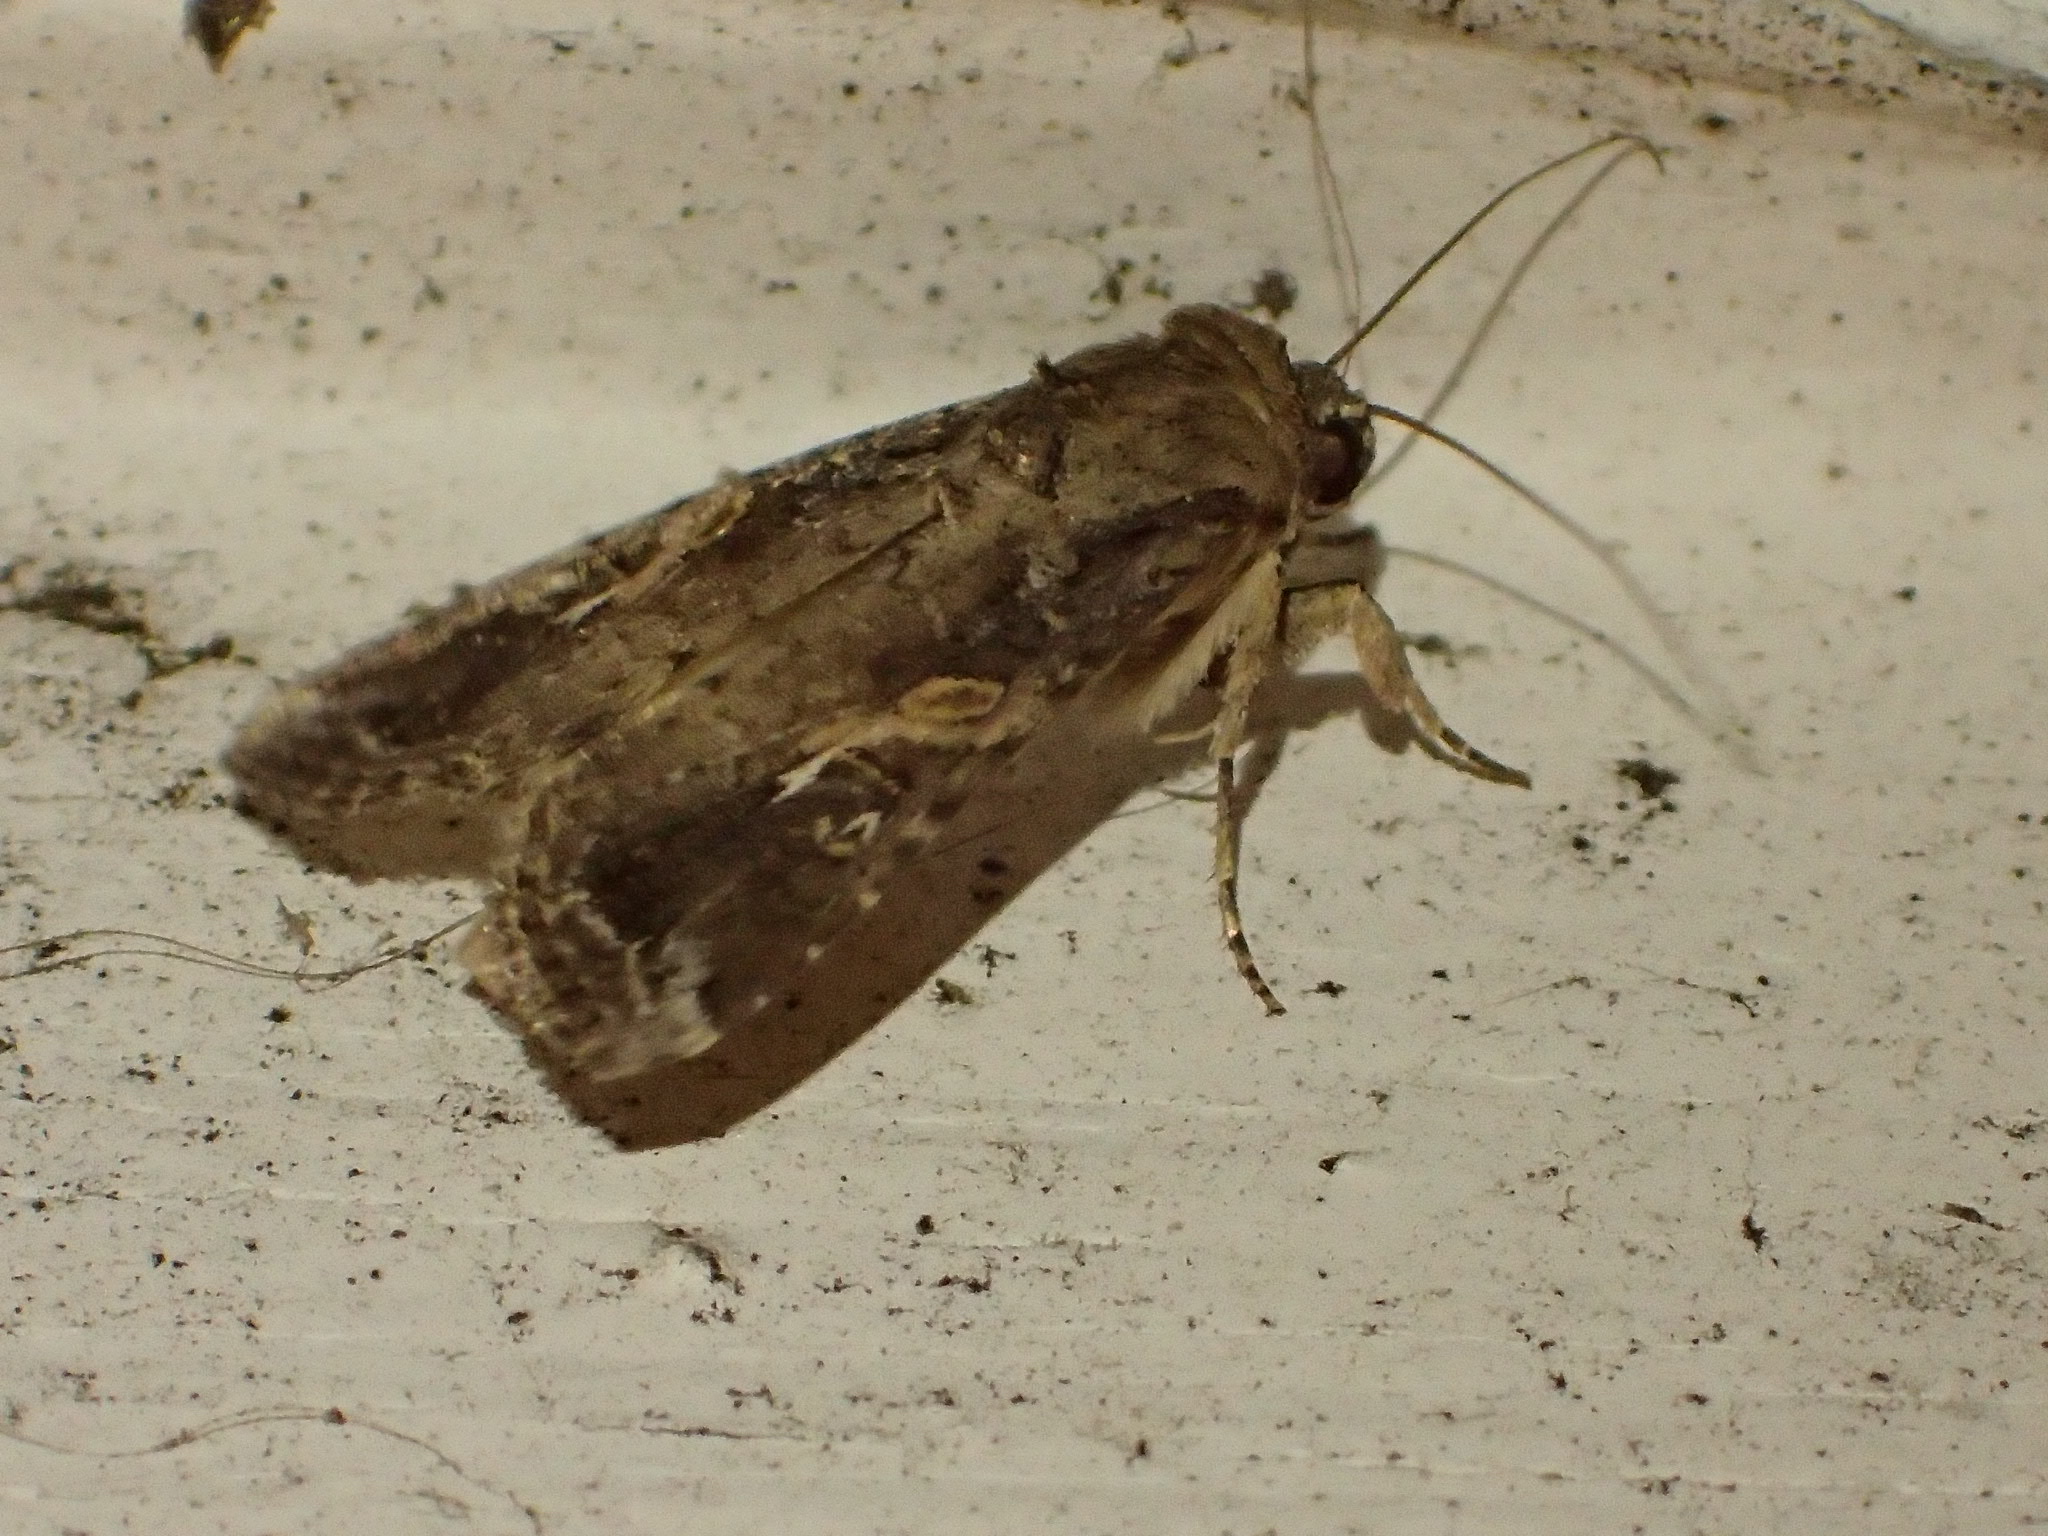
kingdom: Animalia
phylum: Arthropoda
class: Insecta
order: Lepidoptera
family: Noctuidae
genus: Spodoptera
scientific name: Spodoptera frugiperda
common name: Fall armyworm
